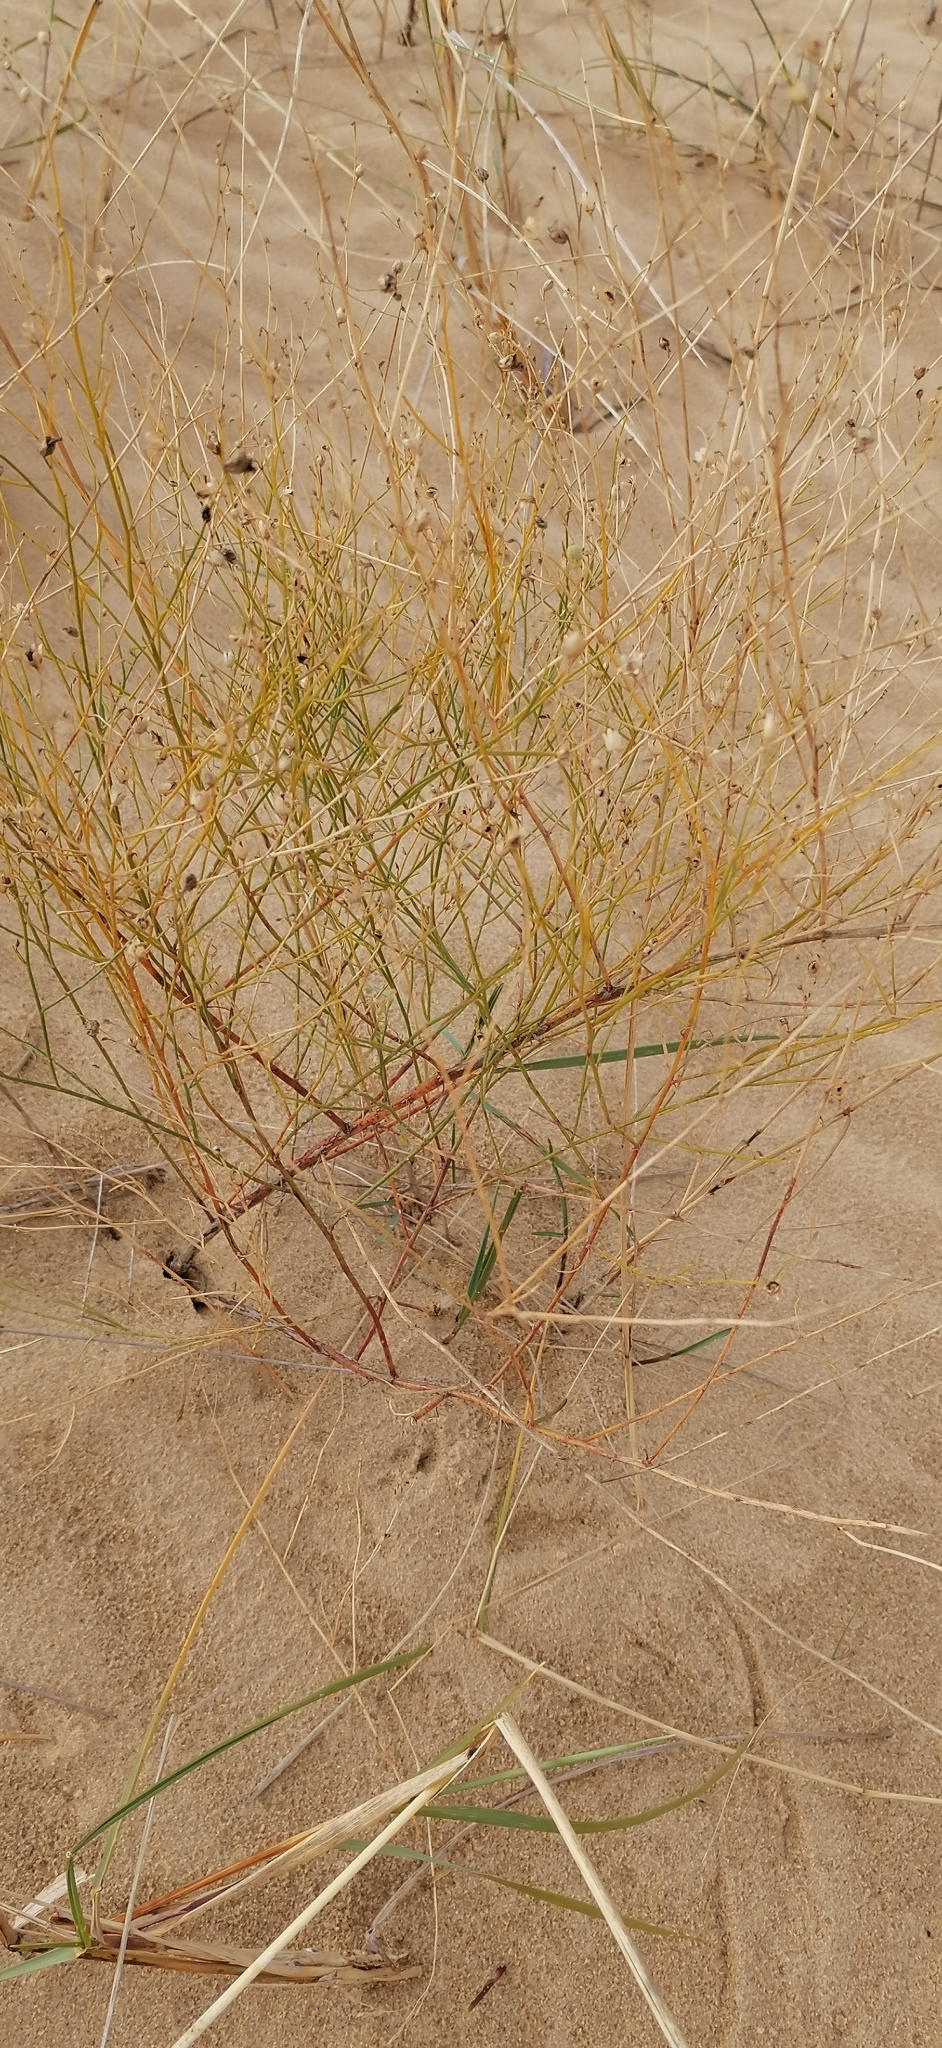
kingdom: Plantae
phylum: Tracheophyta
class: Magnoliopsida
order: Lamiales
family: Plantaginaceae
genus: Linaria
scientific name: Linaria odora
